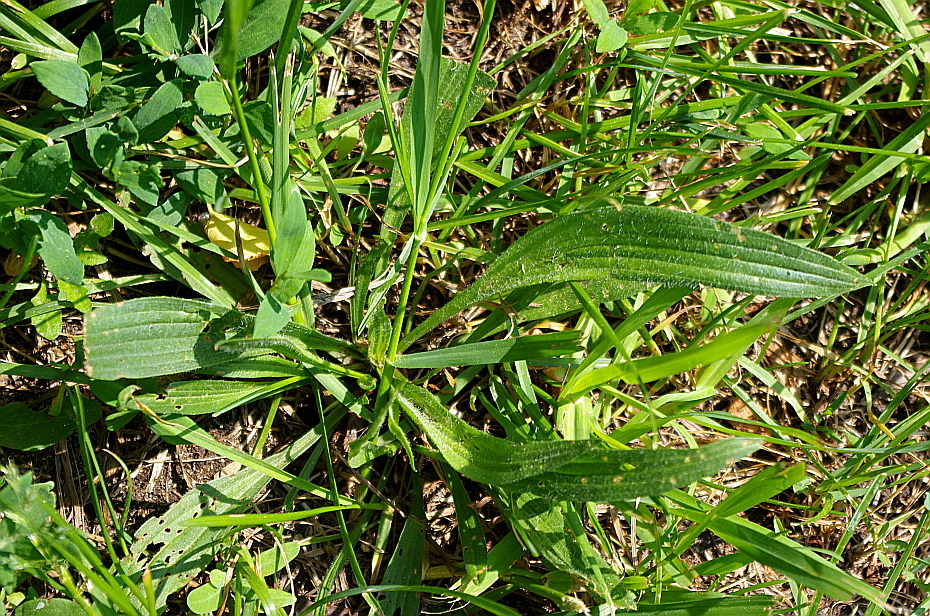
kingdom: Plantae
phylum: Tracheophyta
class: Magnoliopsida
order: Lamiales
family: Plantaginaceae
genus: Plantago
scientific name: Plantago lanceolata
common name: Ribwort plantain
